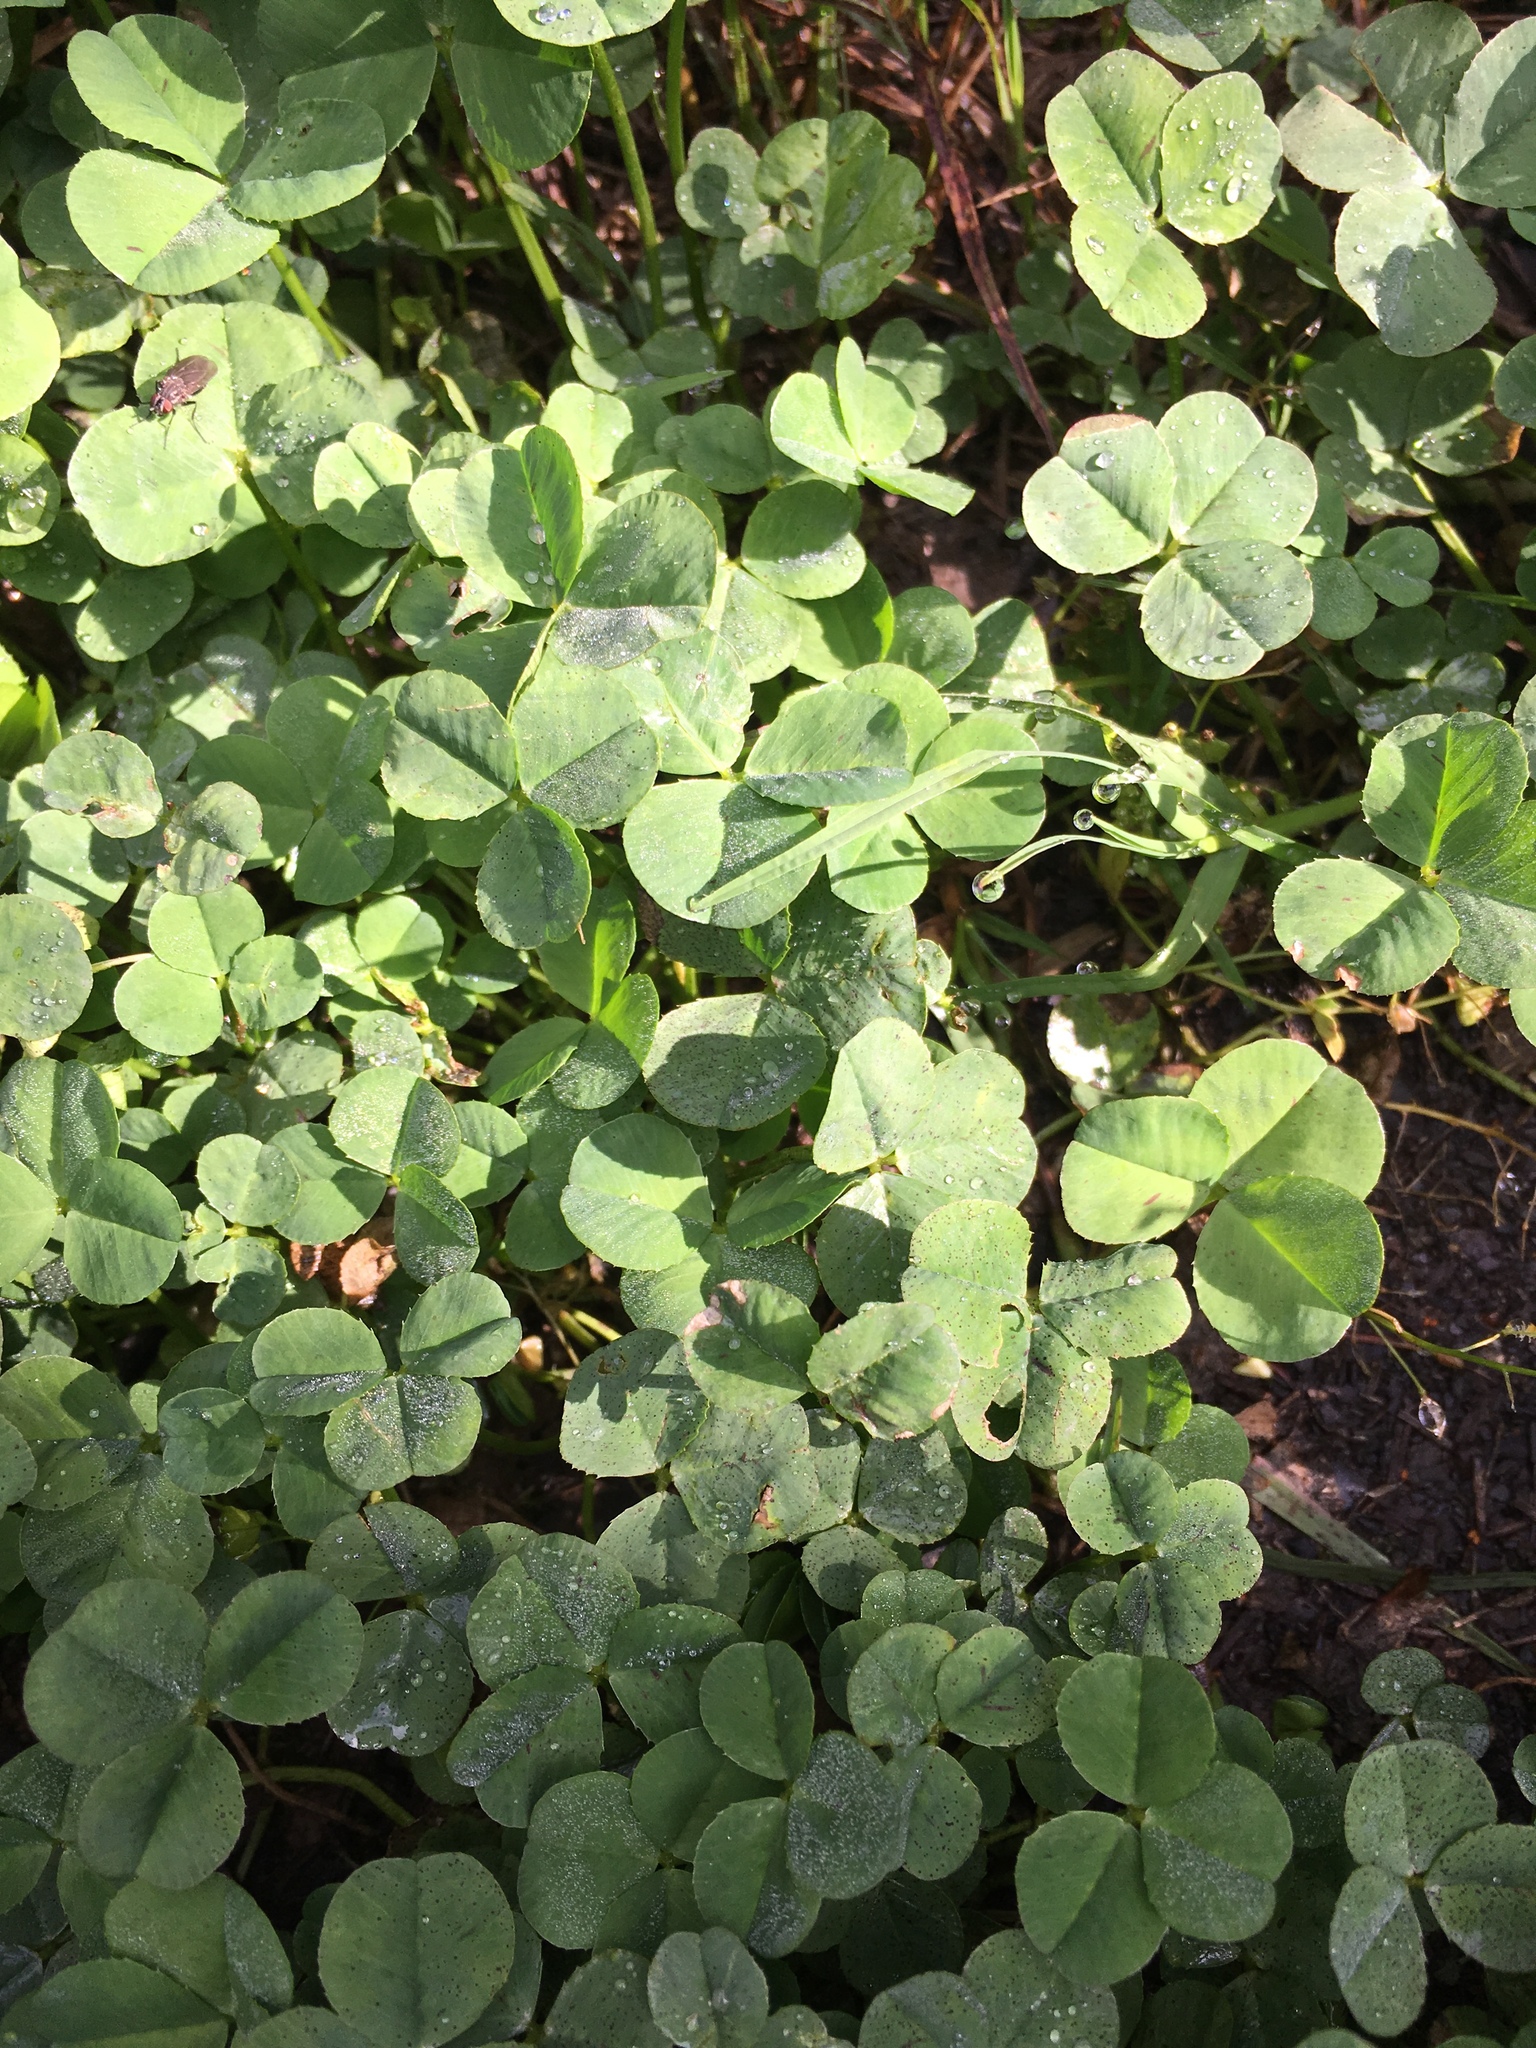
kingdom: Plantae
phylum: Tracheophyta
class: Magnoliopsida
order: Fabales
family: Fabaceae
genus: Trifolium
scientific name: Trifolium repens
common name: White clover
